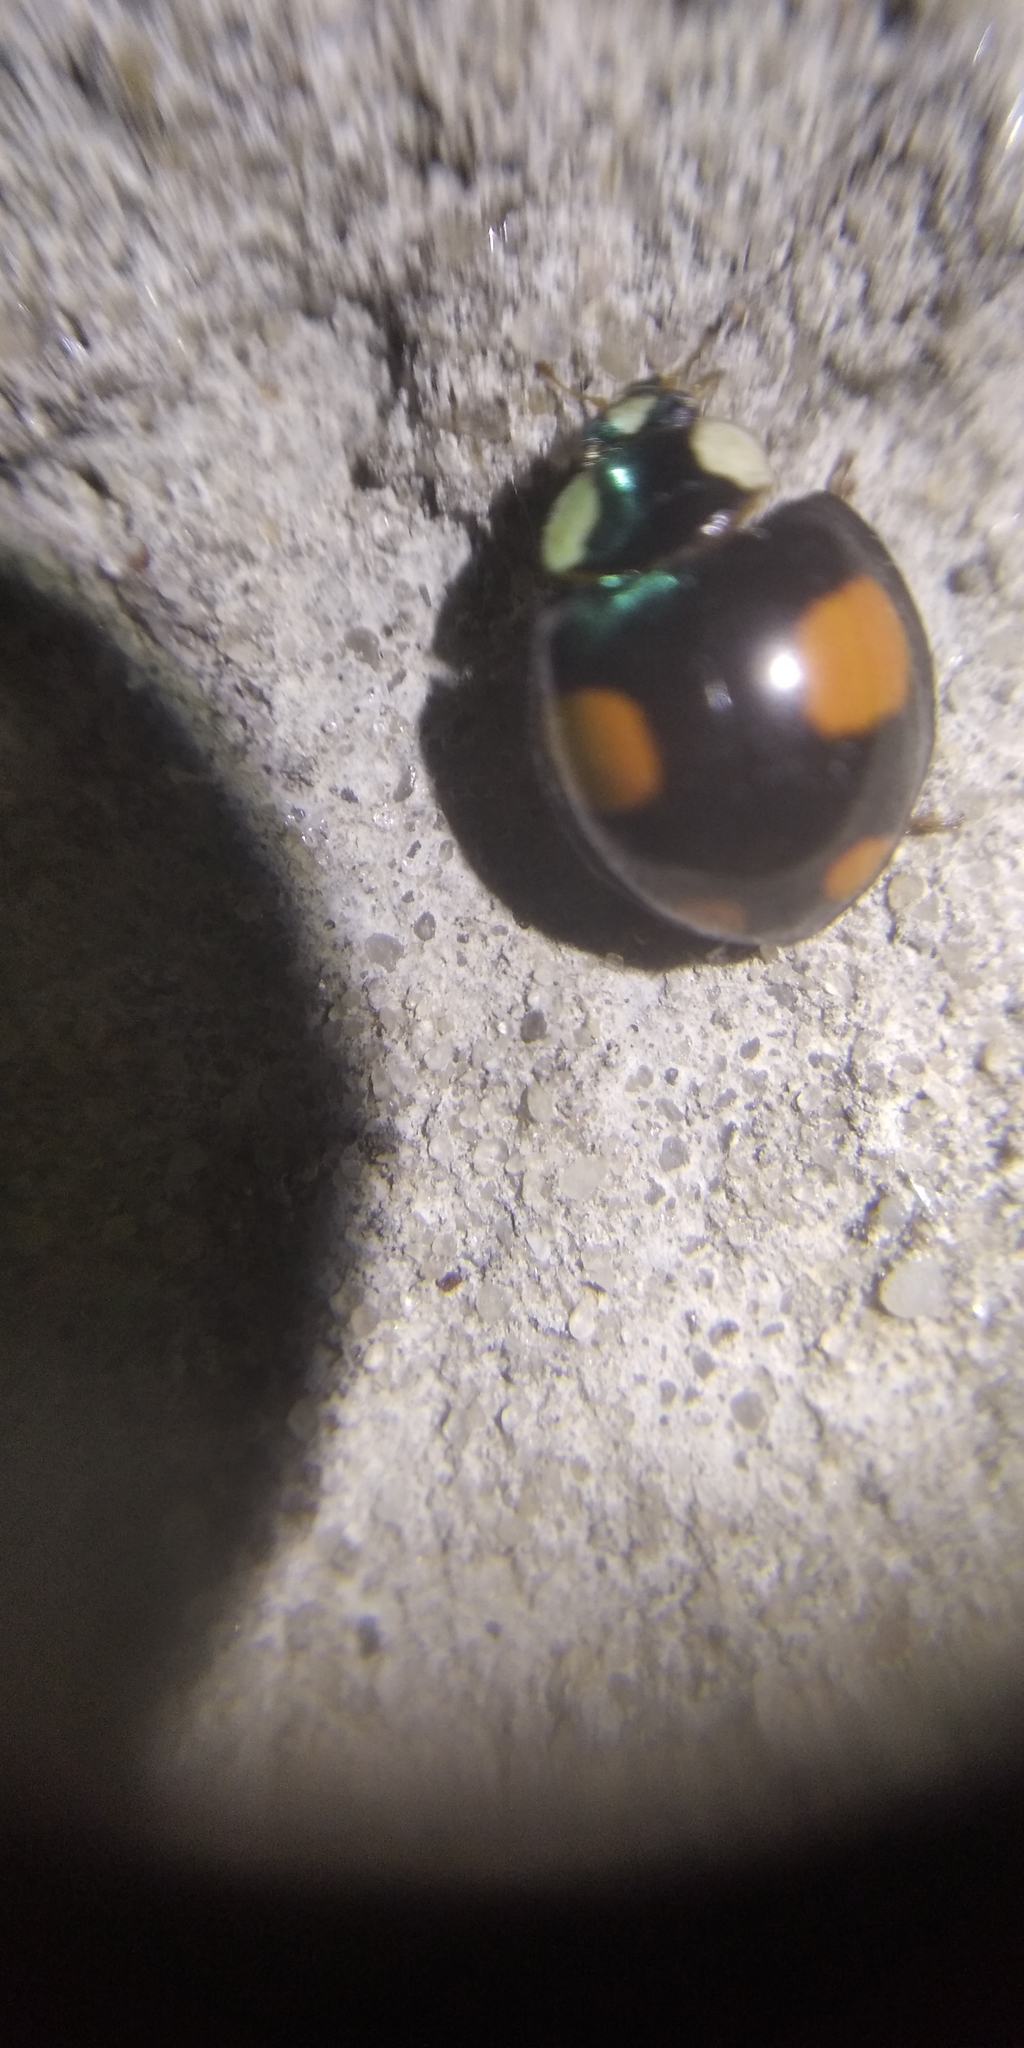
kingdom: Animalia
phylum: Arthropoda
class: Insecta
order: Coleoptera
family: Coccinellidae
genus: Harmonia
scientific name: Harmonia axyridis
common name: Harlequin ladybird
